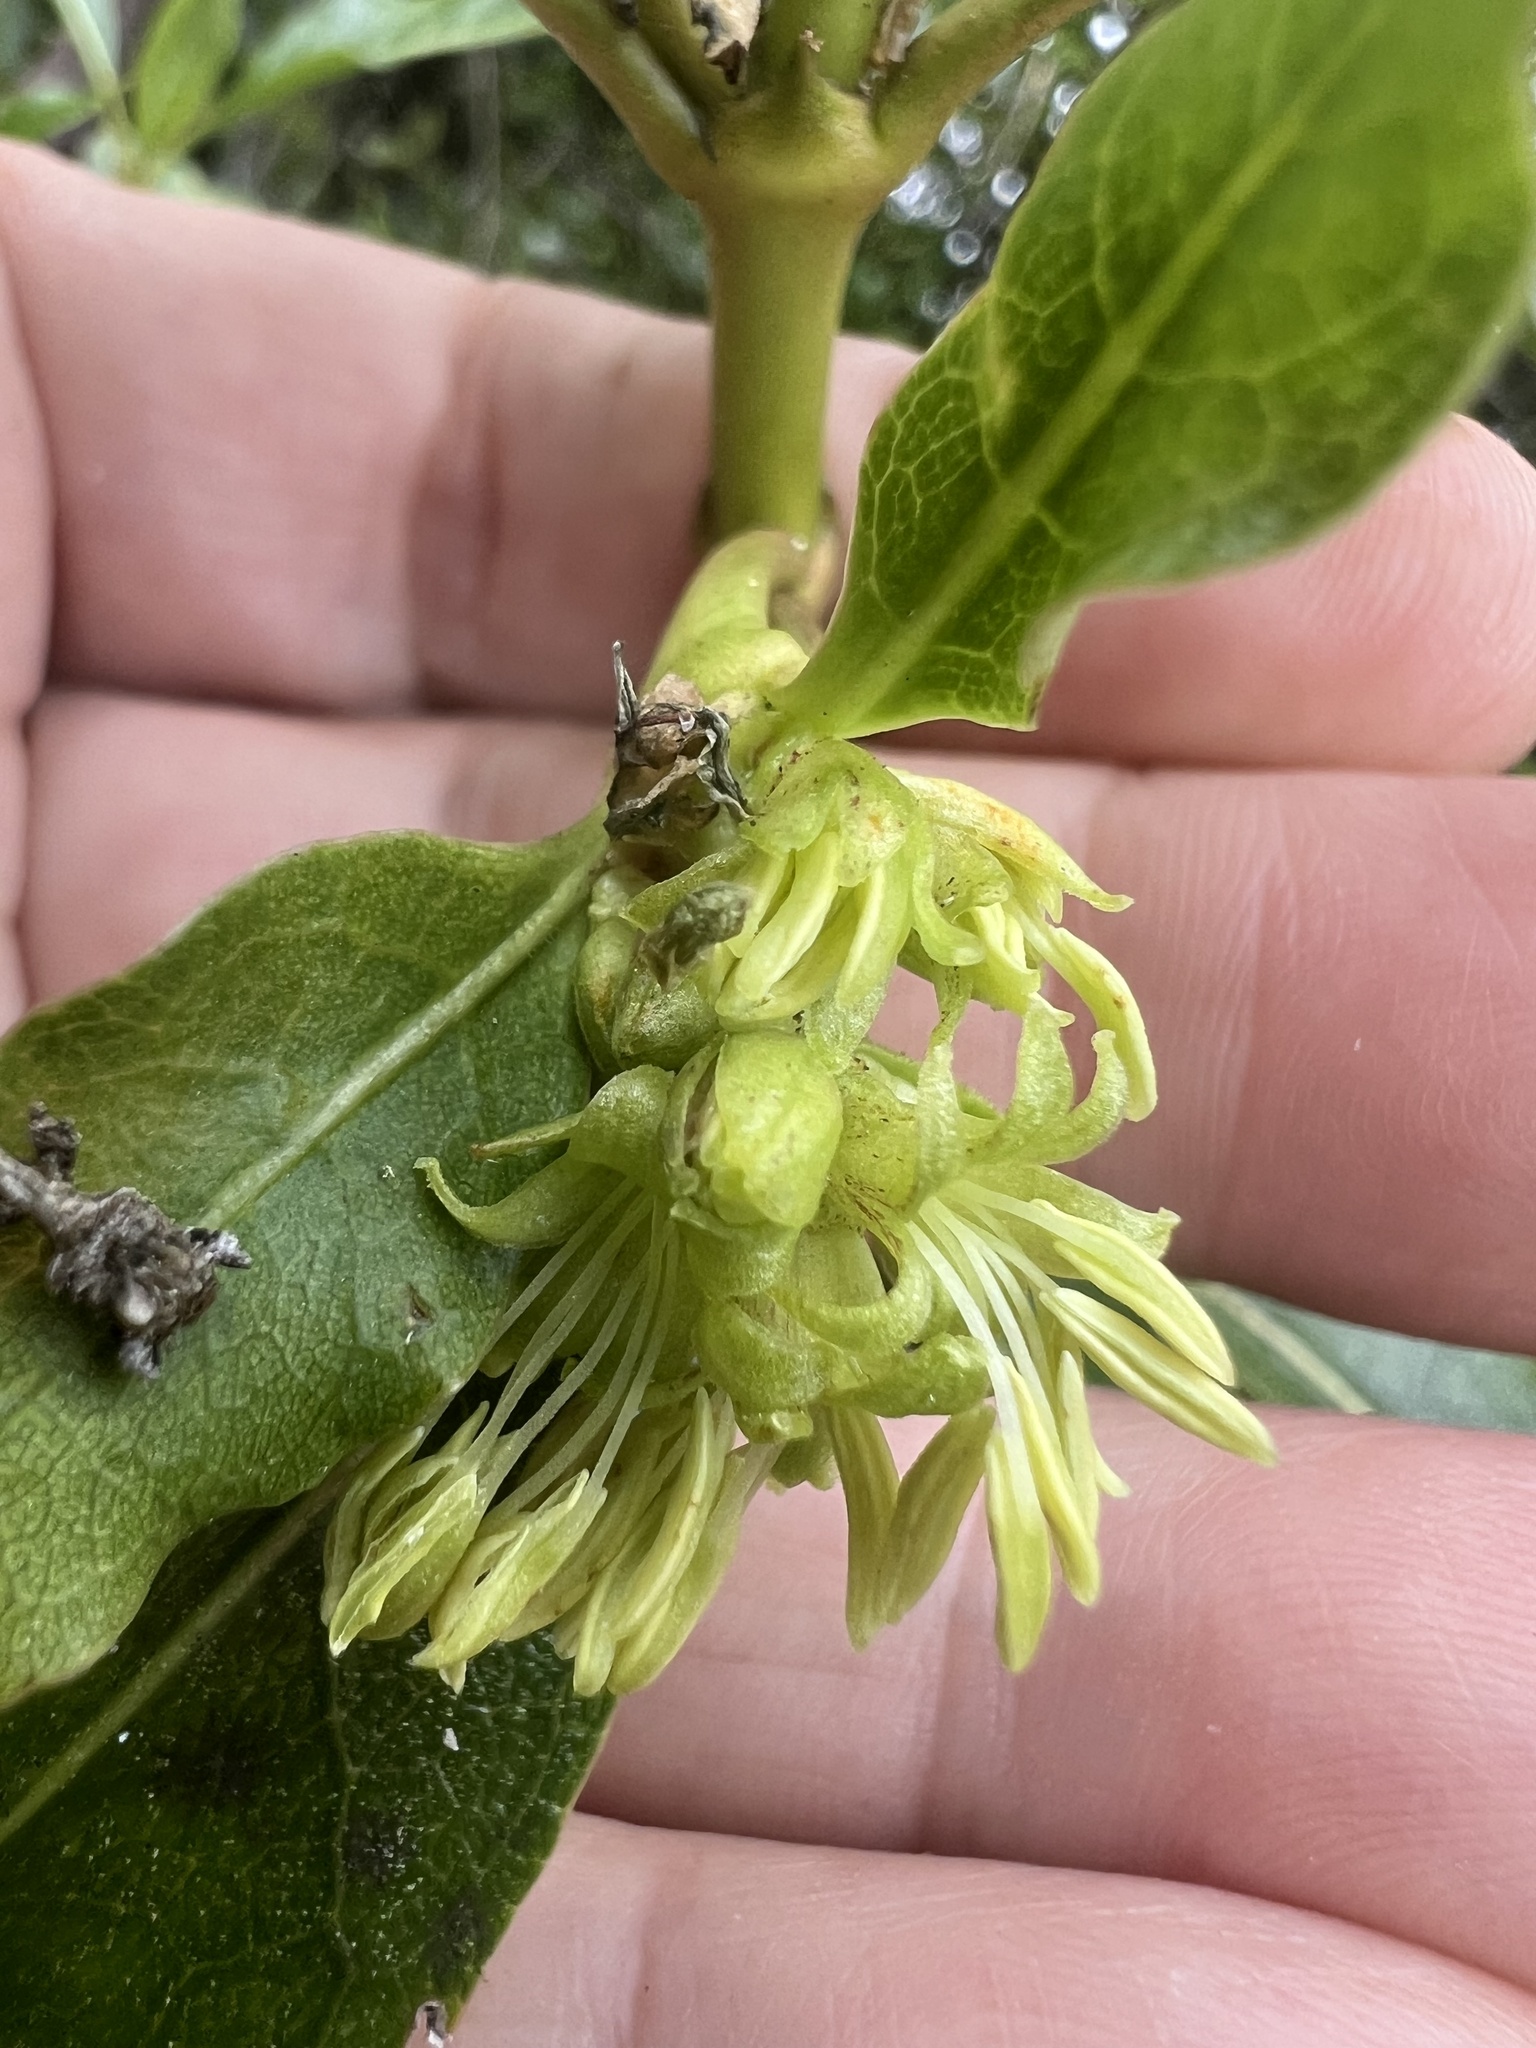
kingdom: Plantae
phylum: Tracheophyta
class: Magnoliopsida
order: Gentianales
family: Rubiaceae
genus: Coprosma
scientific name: Coprosma lucida
